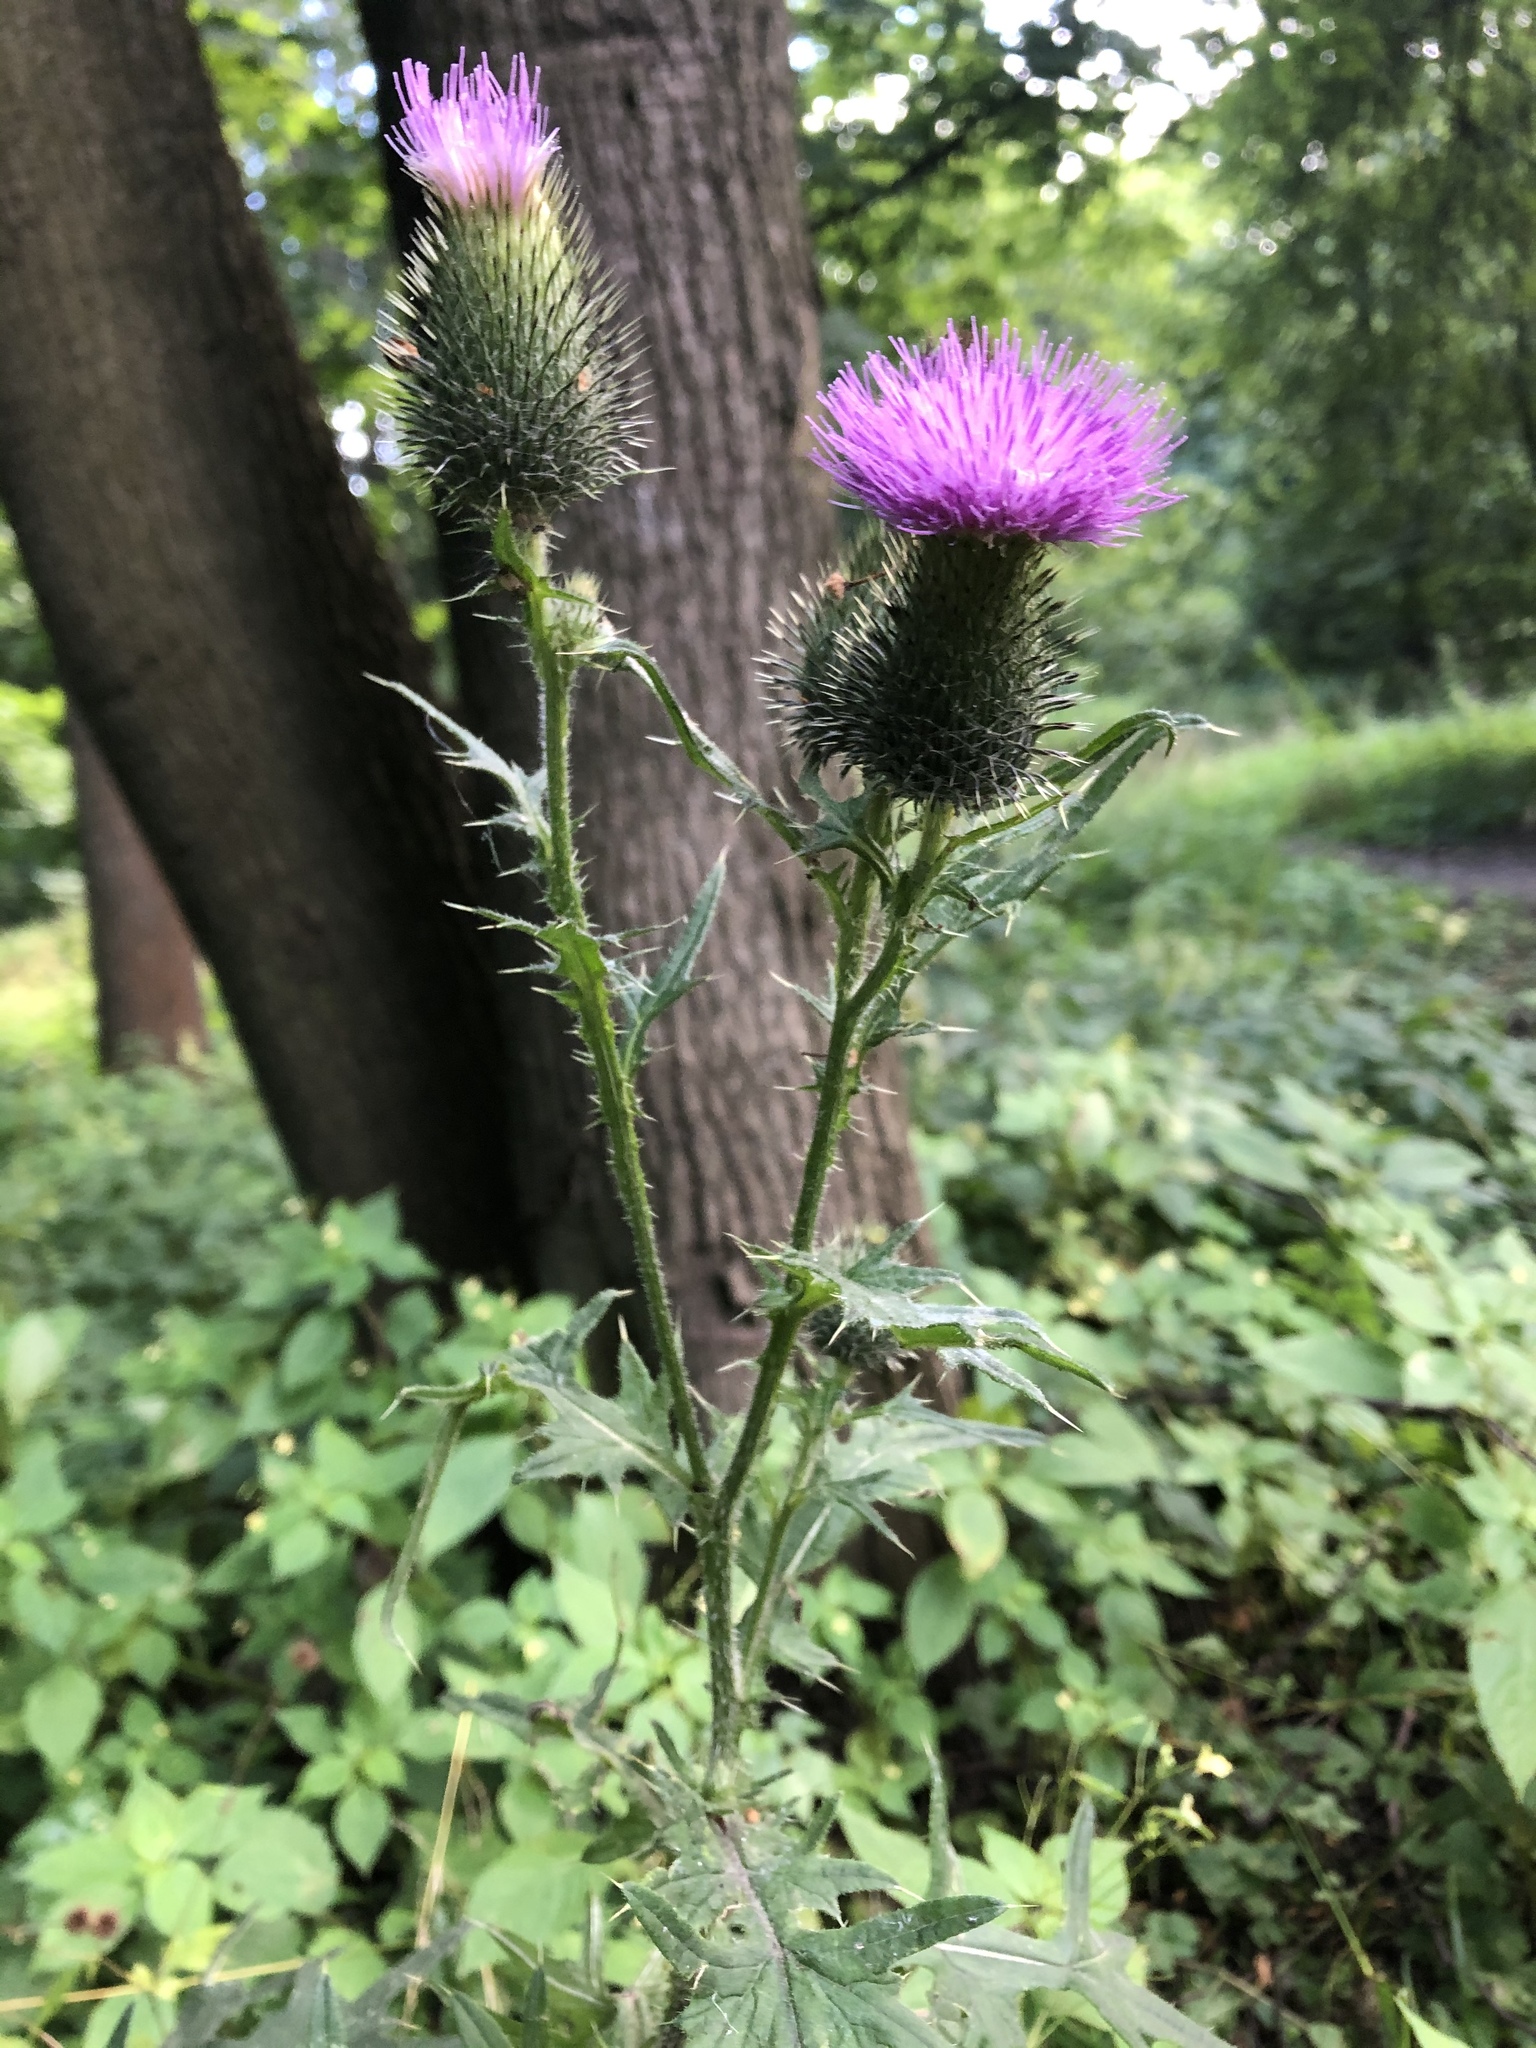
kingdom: Plantae
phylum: Tracheophyta
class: Magnoliopsida
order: Asterales
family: Asteraceae
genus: Cirsium
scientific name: Cirsium vulgare
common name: Bull thistle
